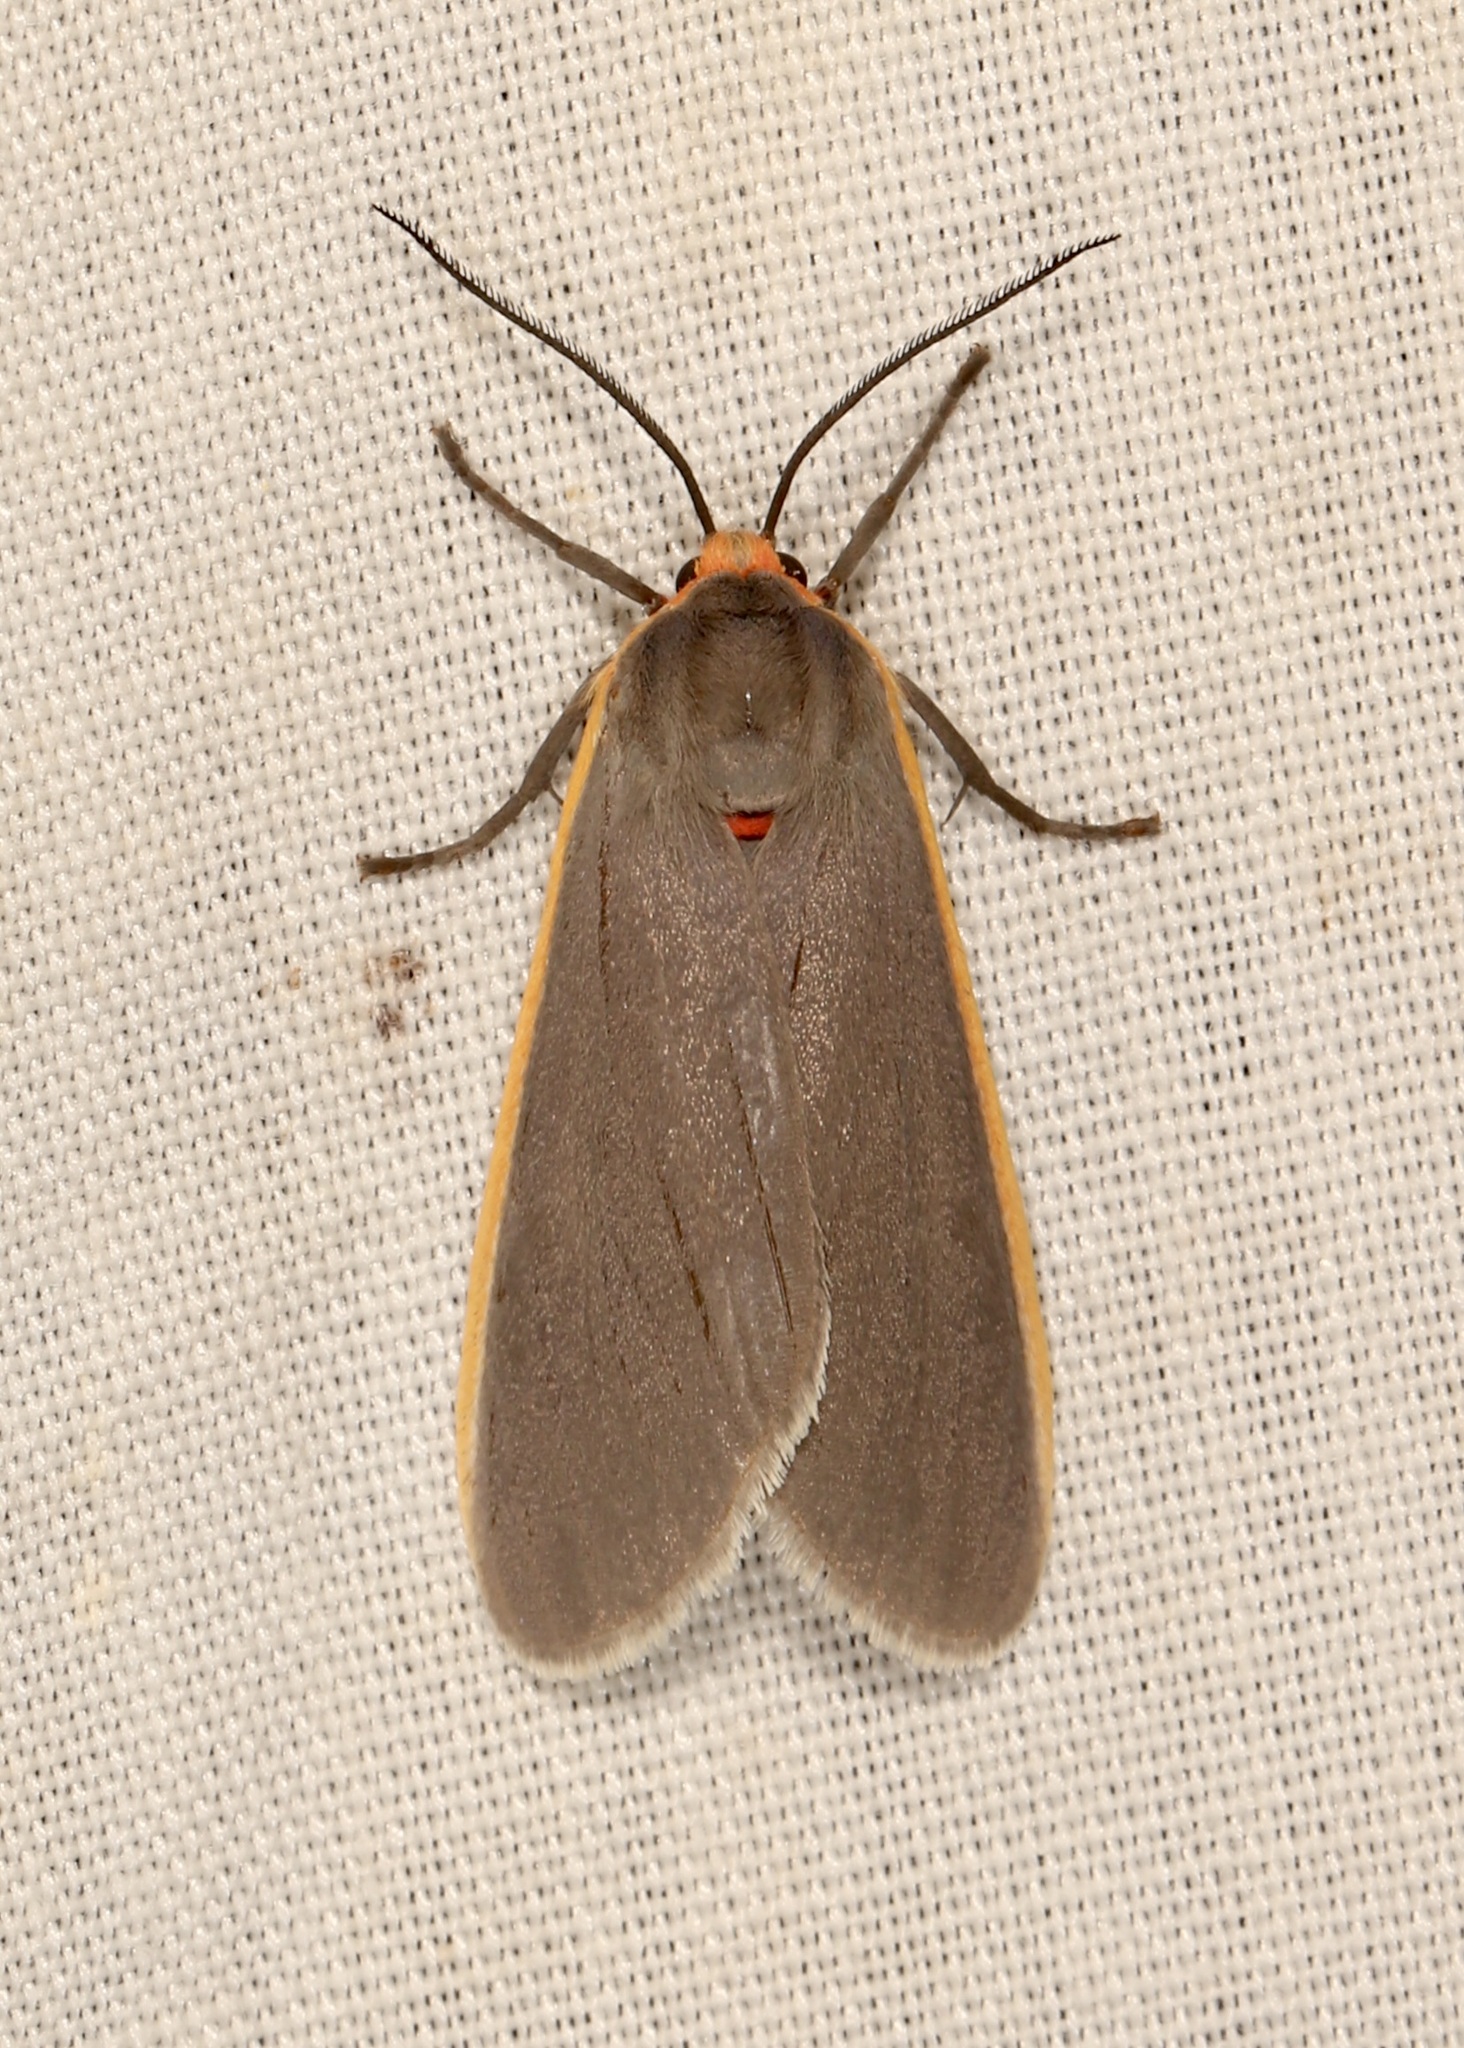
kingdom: Animalia
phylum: Arthropoda
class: Insecta
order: Lepidoptera
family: Erebidae
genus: Euchaetes
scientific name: Euchaetes antica
